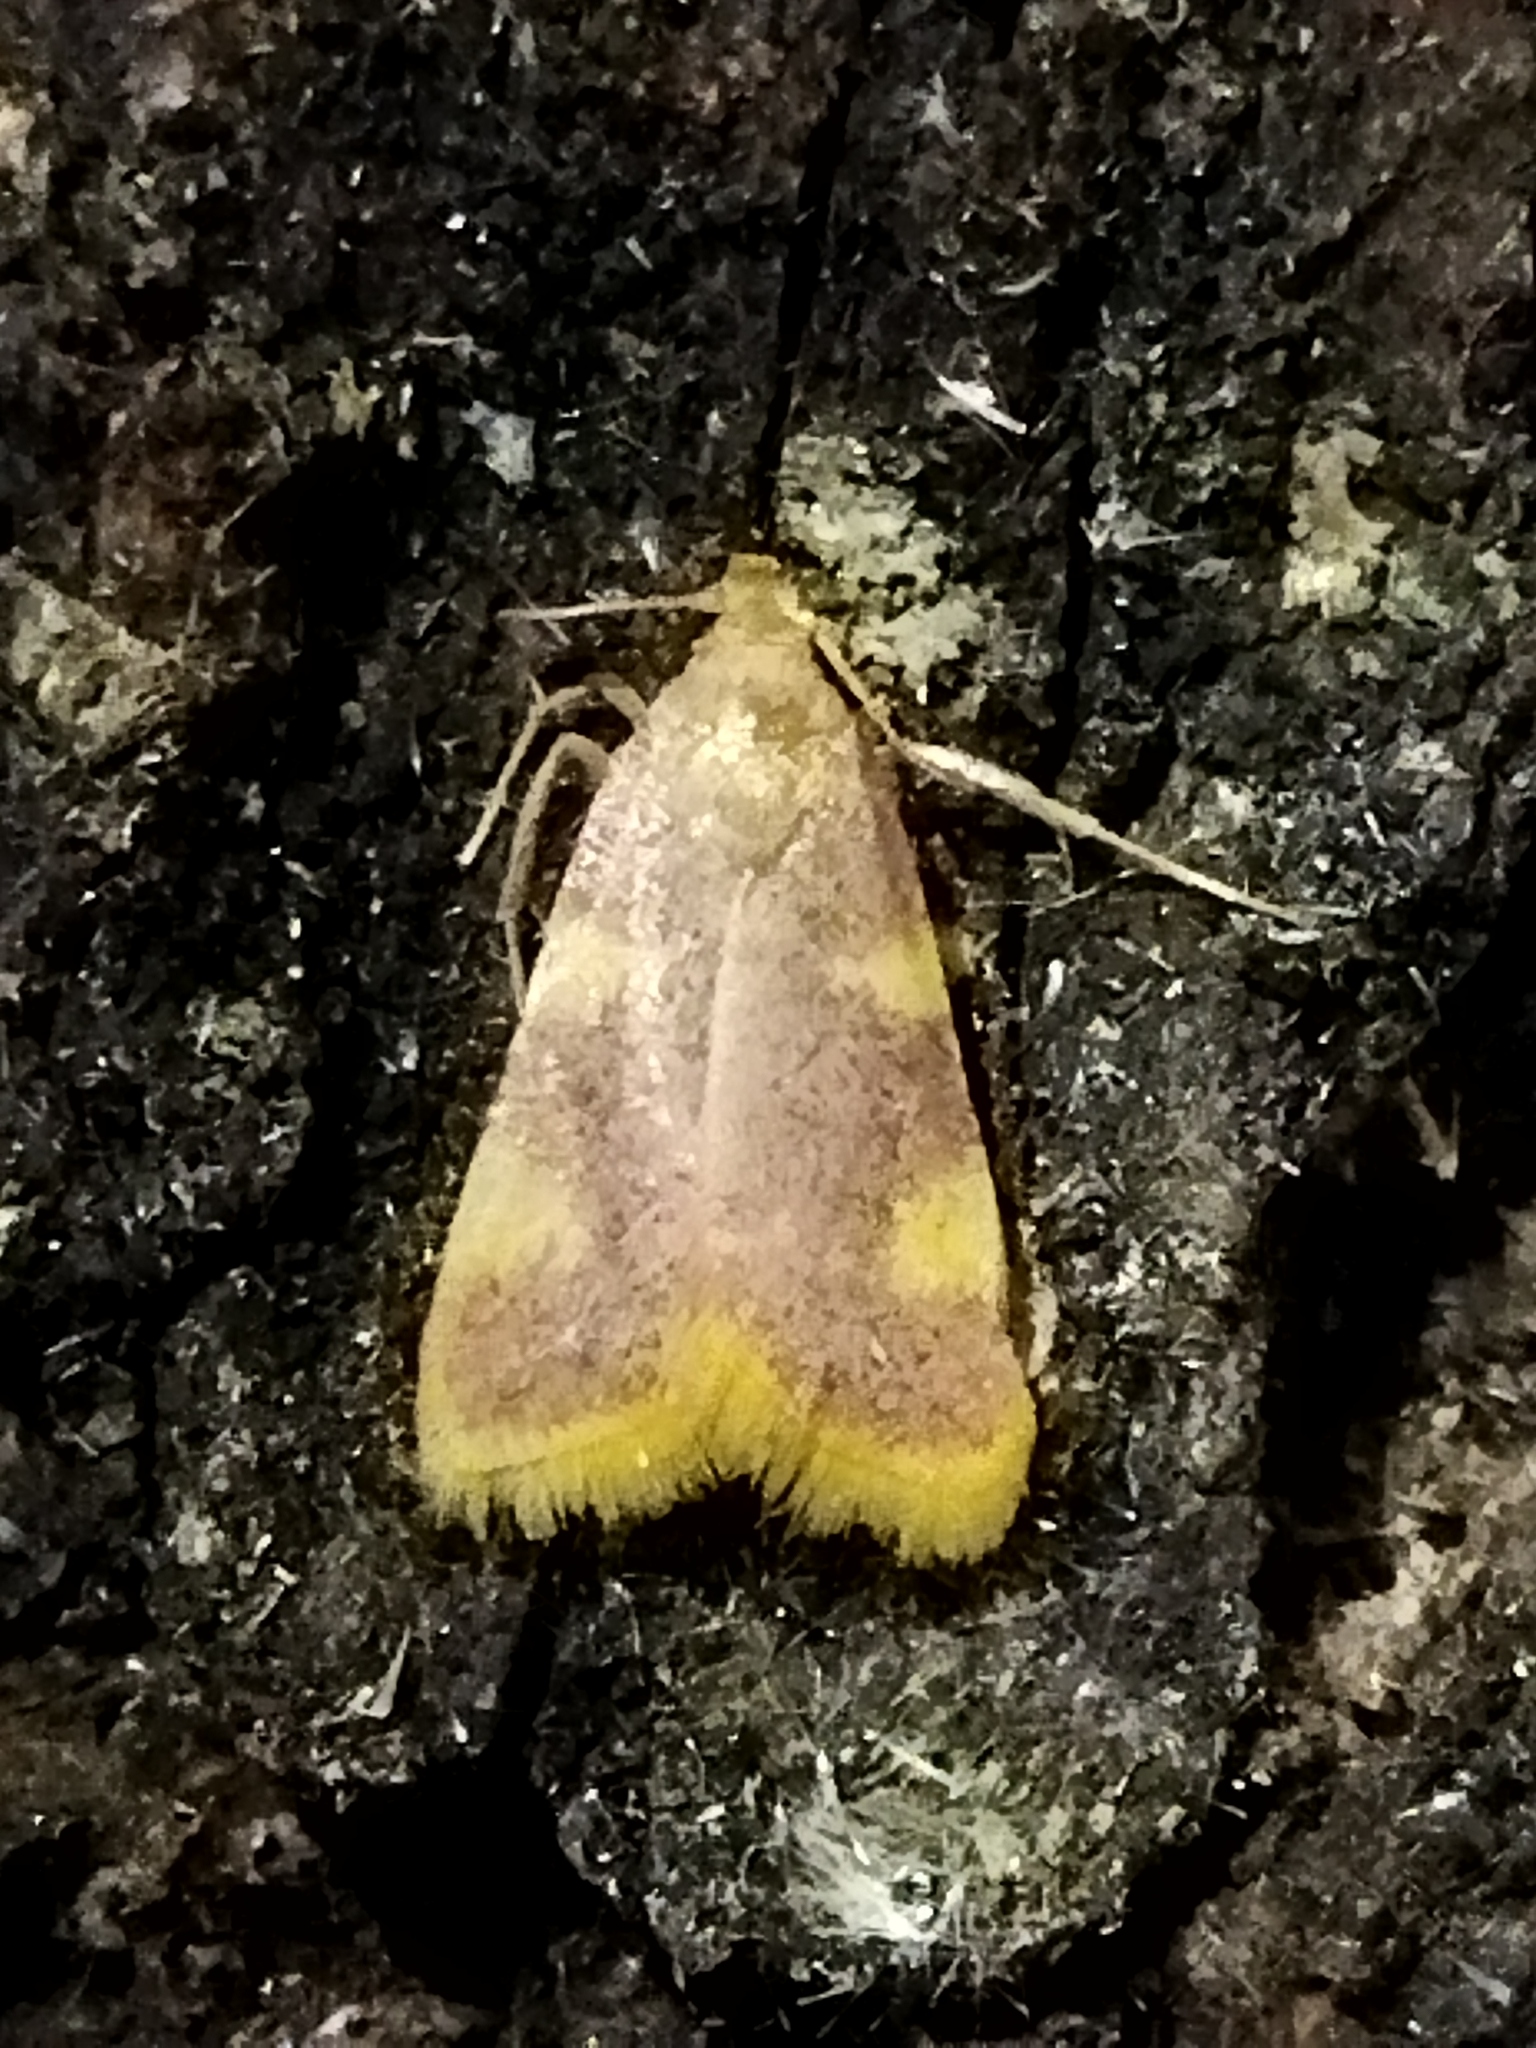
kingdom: Animalia
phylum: Arthropoda
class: Insecta
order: Lepidoptera
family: Pyralidae
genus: Hypsopygia
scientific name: Hypsopygia costalis
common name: Gold triangle
